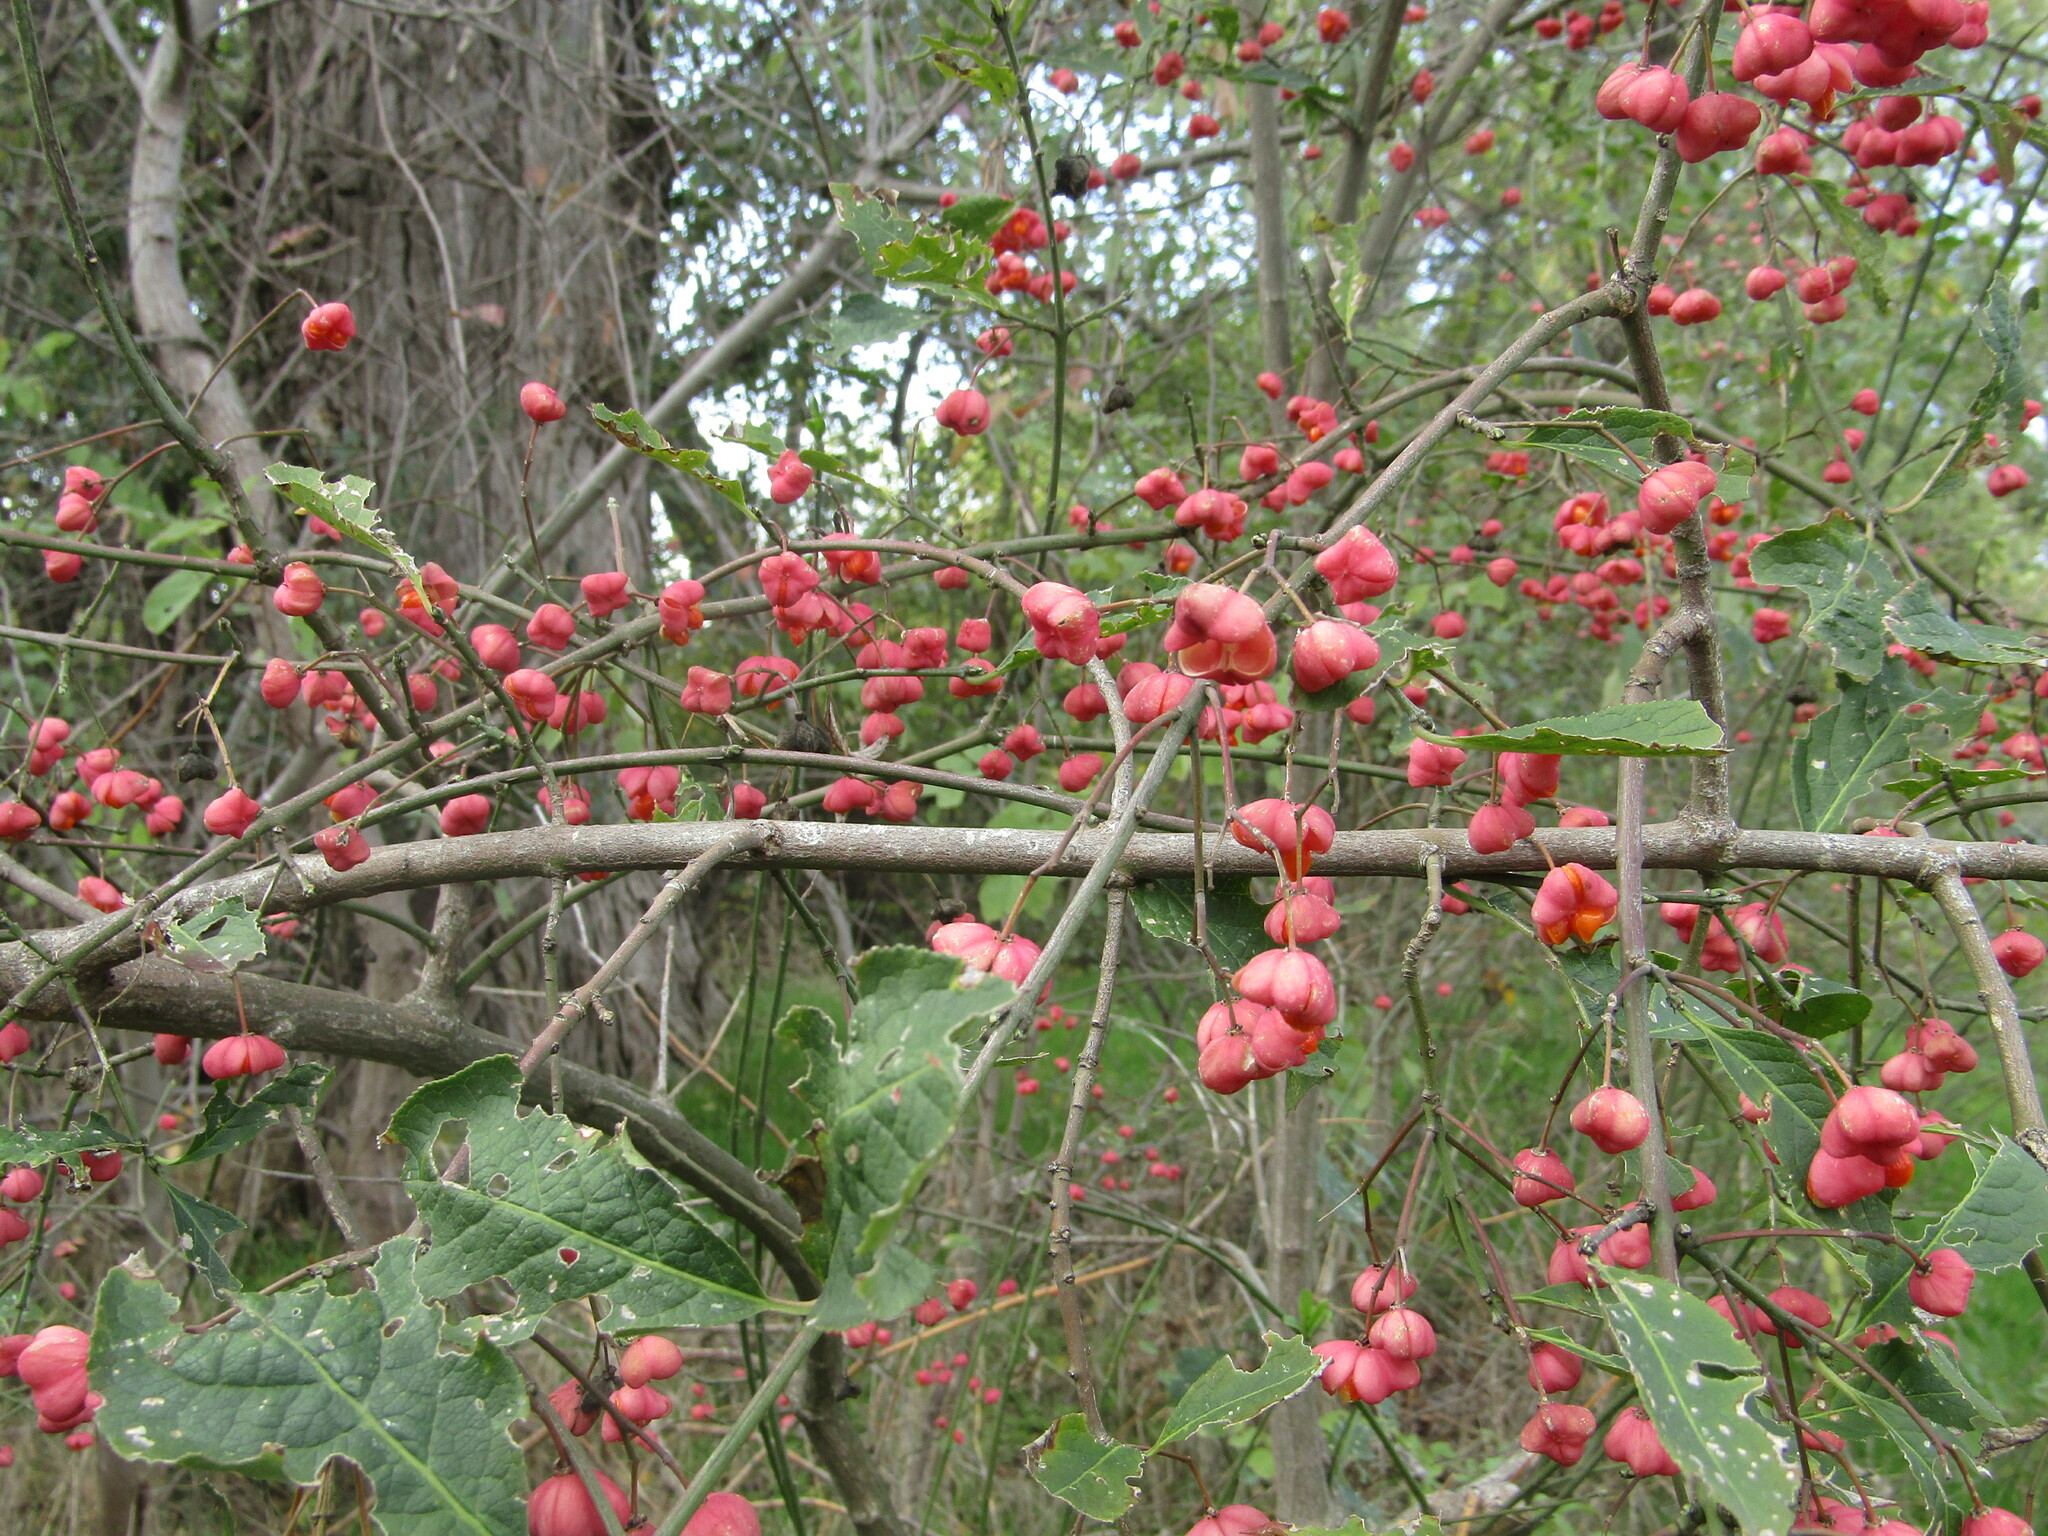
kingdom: Plantae
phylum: Tracheophyta
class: Magnoliopsida
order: Celastrales
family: Celastraceae
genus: Euonymus
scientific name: Euonymus europaeus
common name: Spindle
